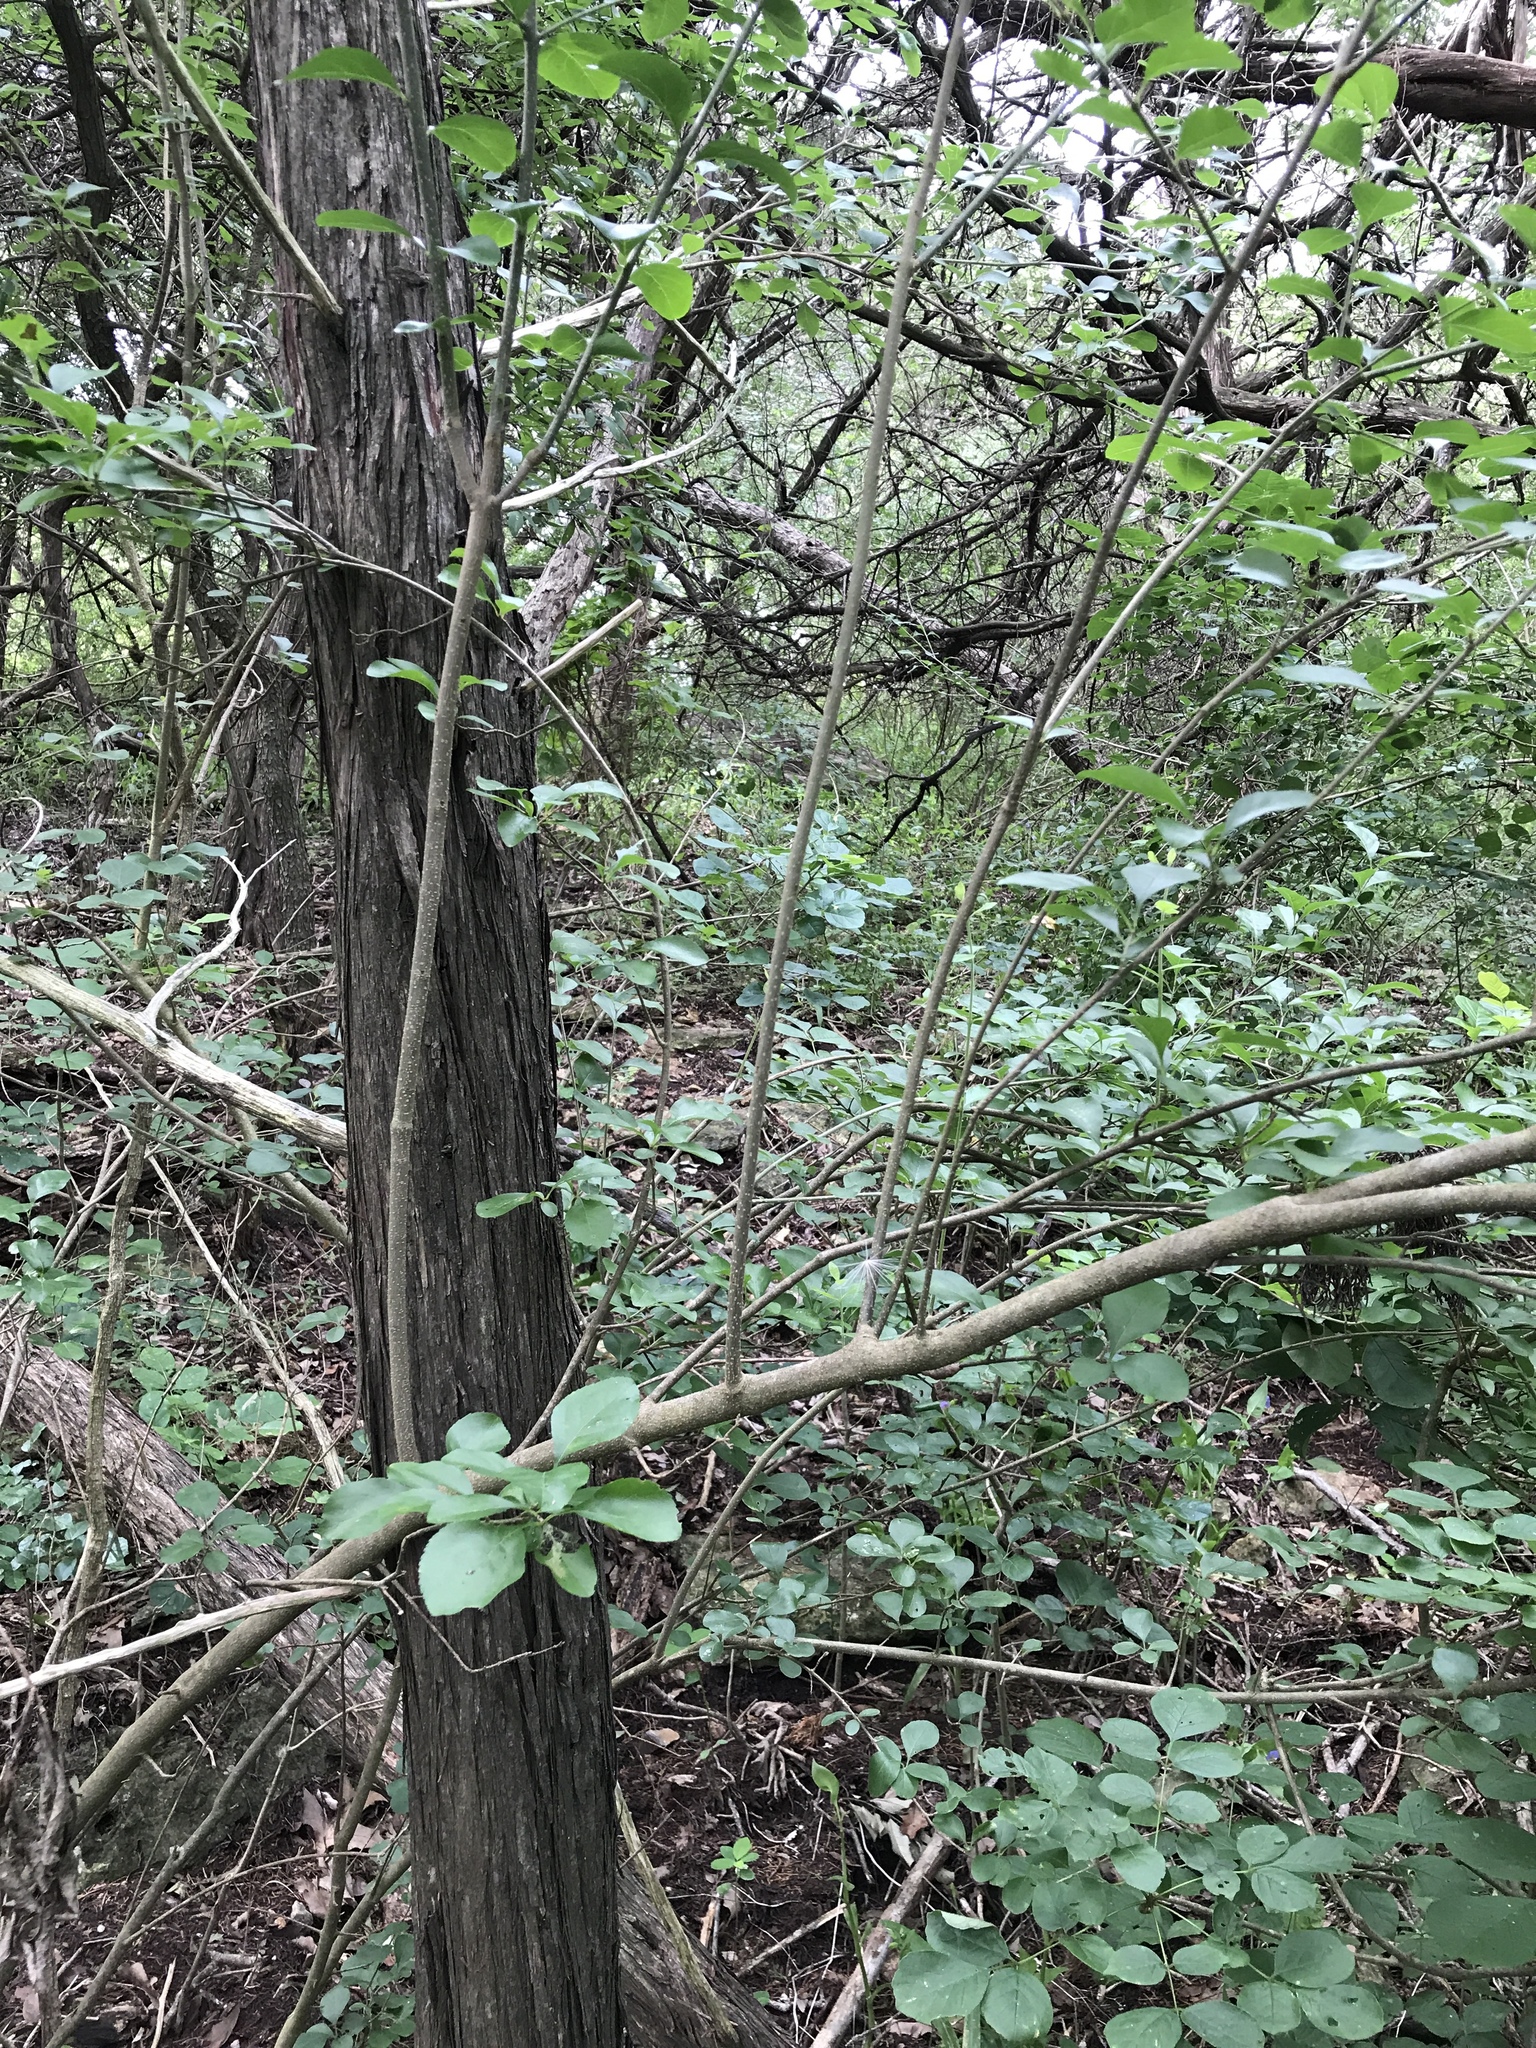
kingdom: Plantae
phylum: Tracheophyta
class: Magnoliopsida
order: Lamiales
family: Oleaceae
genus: Forestiera
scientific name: Forestiera pubescens
